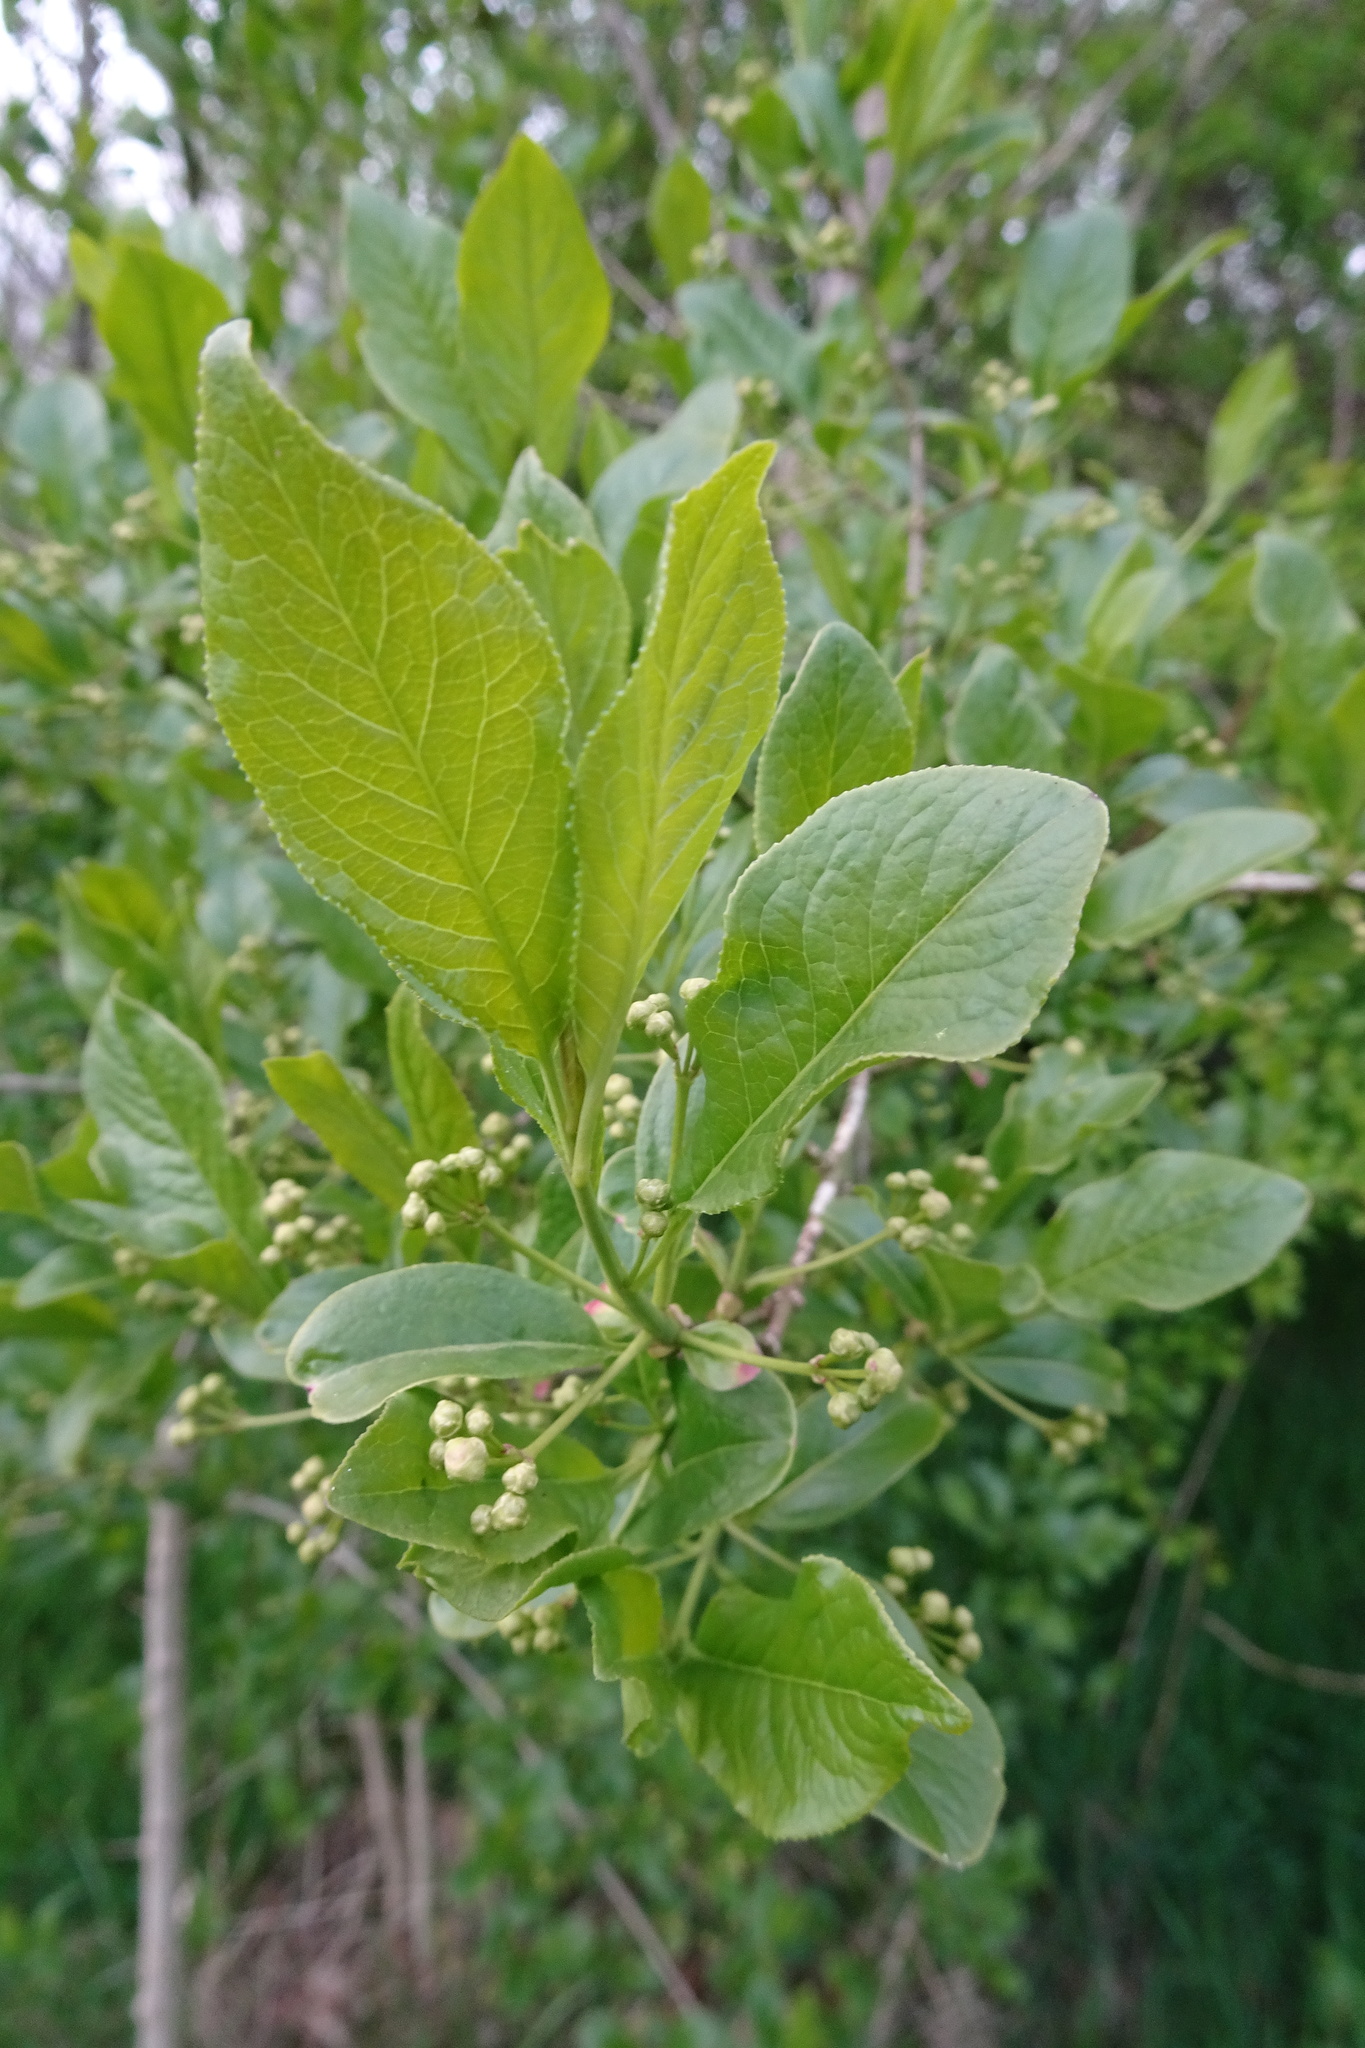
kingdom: Plantae
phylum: Tracheophyta
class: Magnoliopsida
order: Celastrales
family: Celastraceae
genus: Euonymus
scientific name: Euonymus europaeus
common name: Spindle
